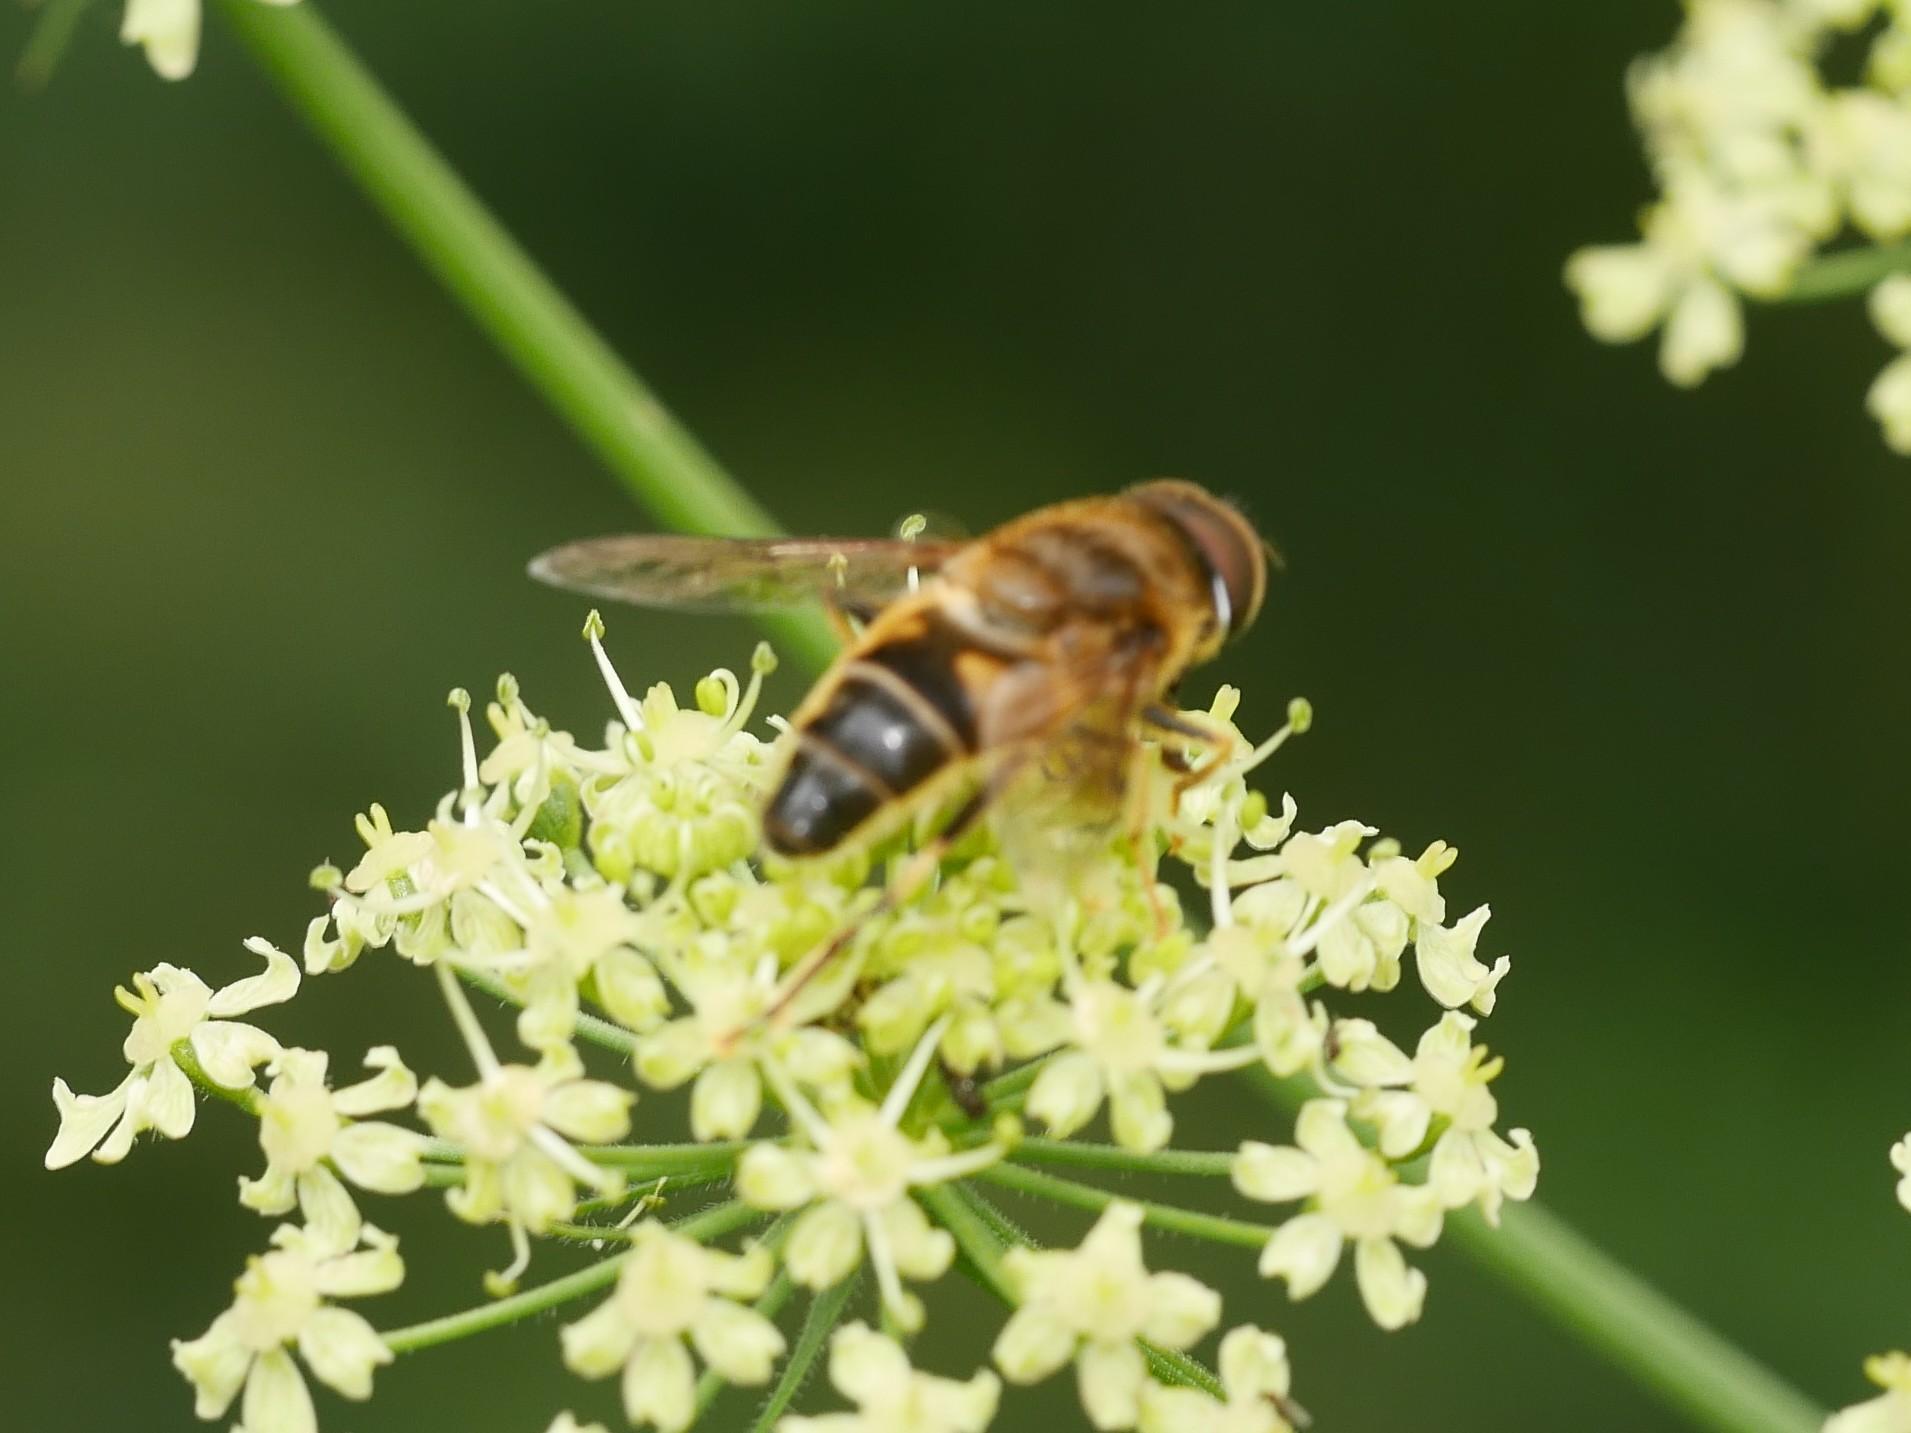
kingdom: Animalia
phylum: Arthropoda
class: Insecta
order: Diptera
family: Syrphidae
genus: Eristalis
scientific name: Eristalis pertinax
